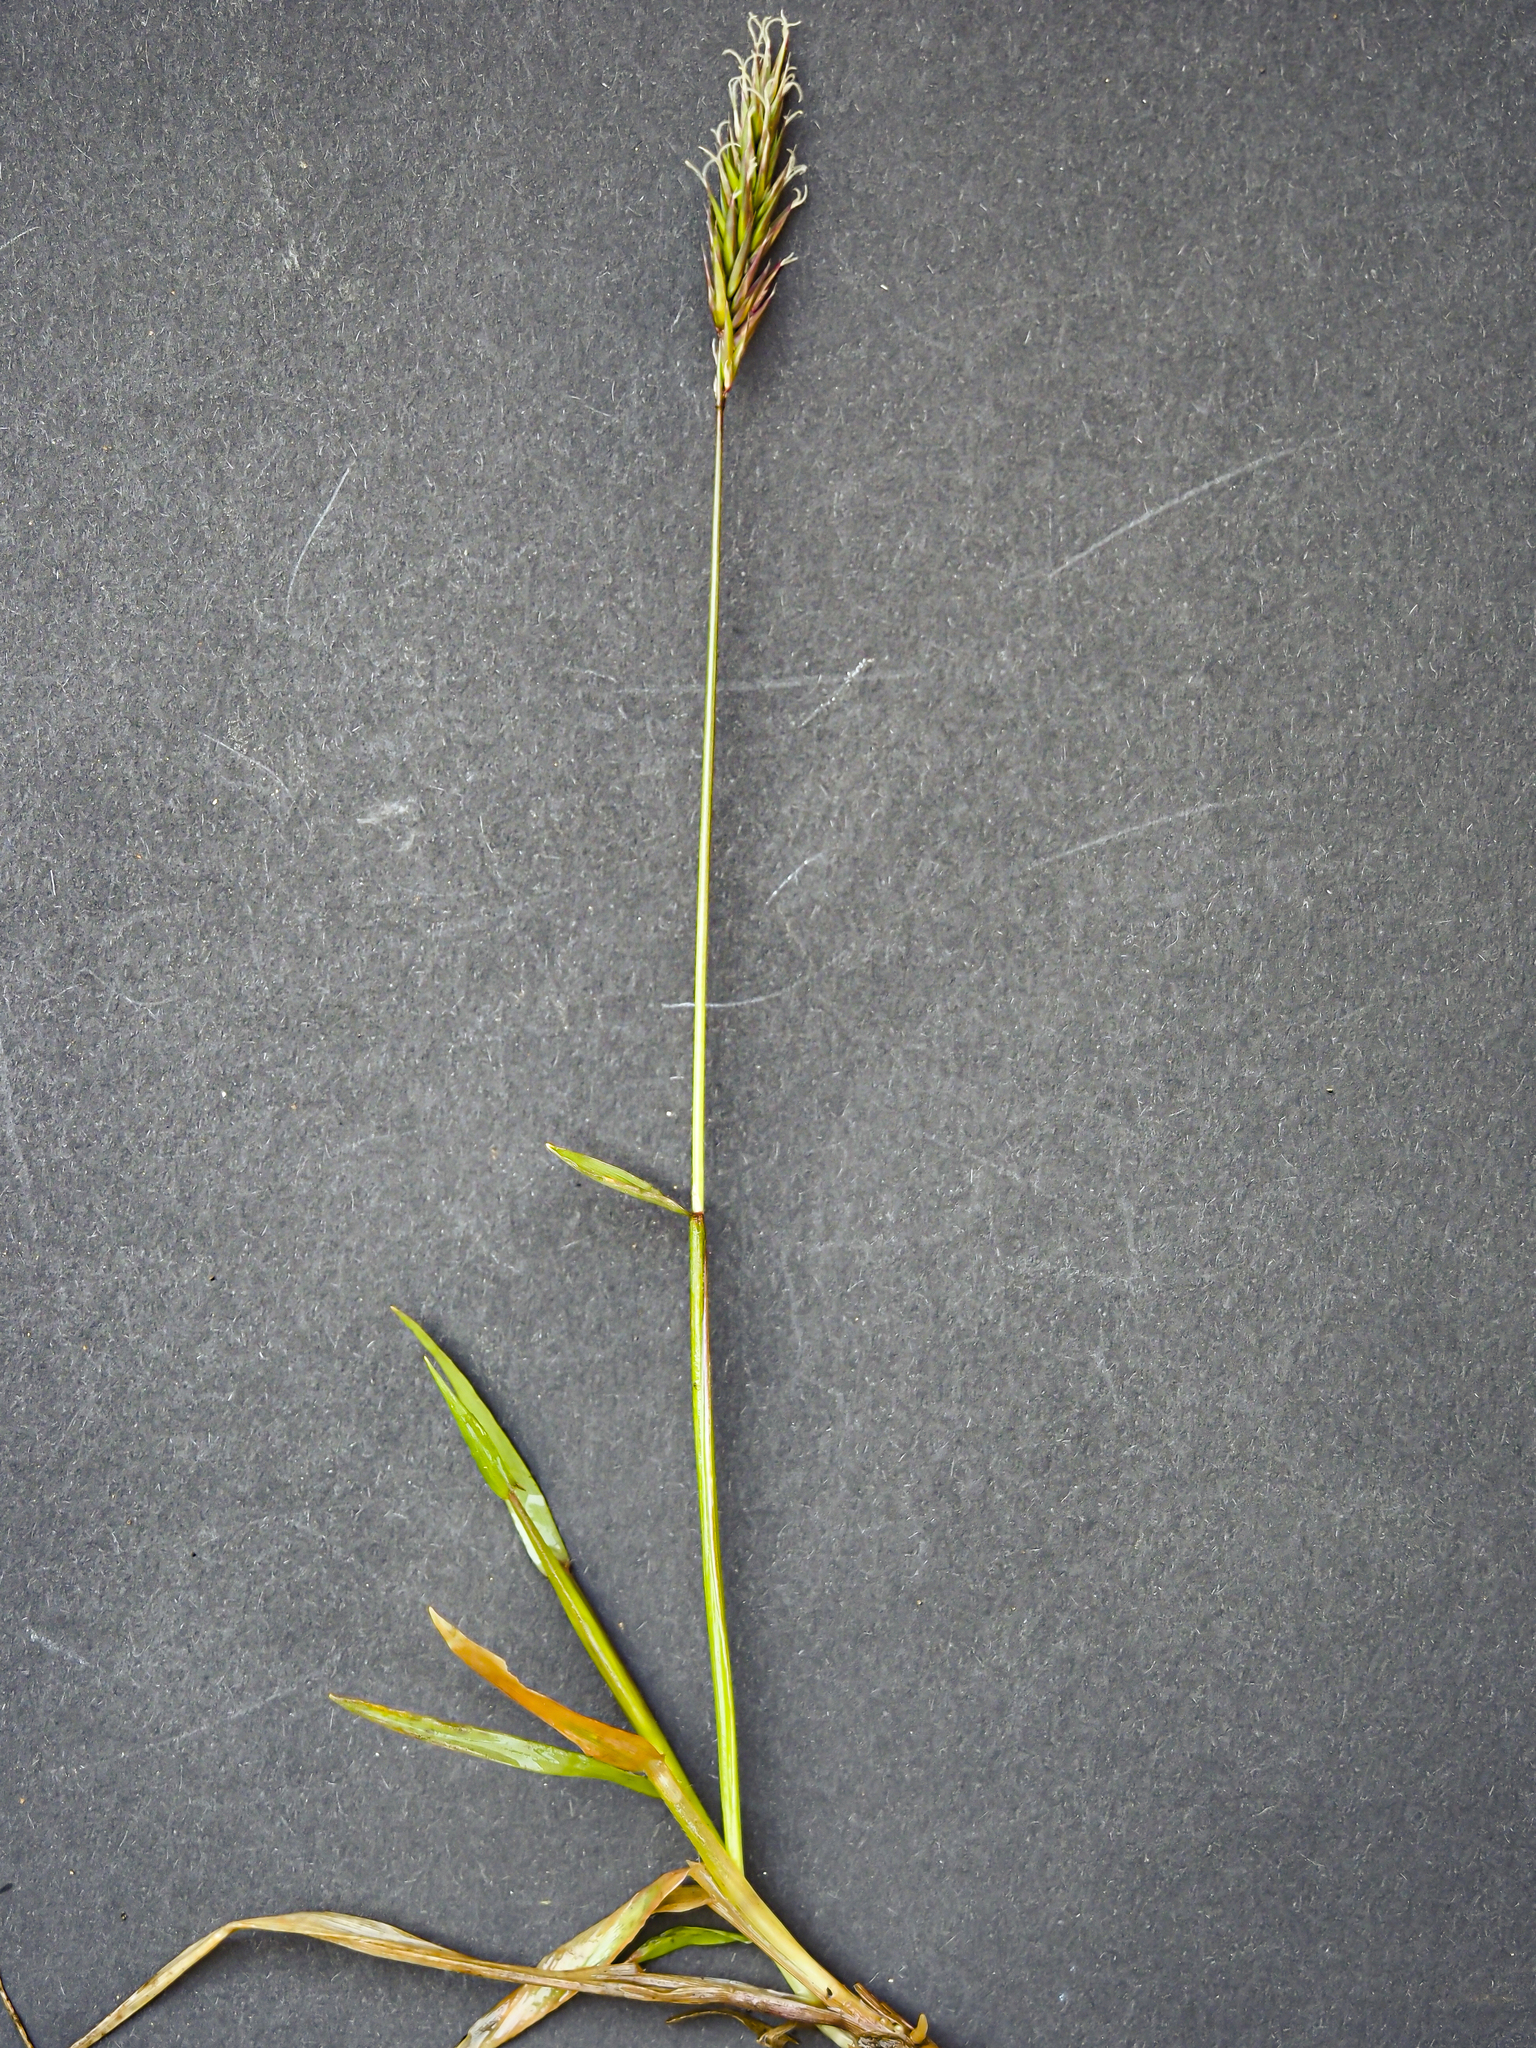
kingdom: Plantae
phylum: Tracheophyta
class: Liliopsida
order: Poales
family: Poaceae
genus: Anthoxanthum
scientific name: Anthoxanthum odoratum
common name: Sweet vernalgrass
